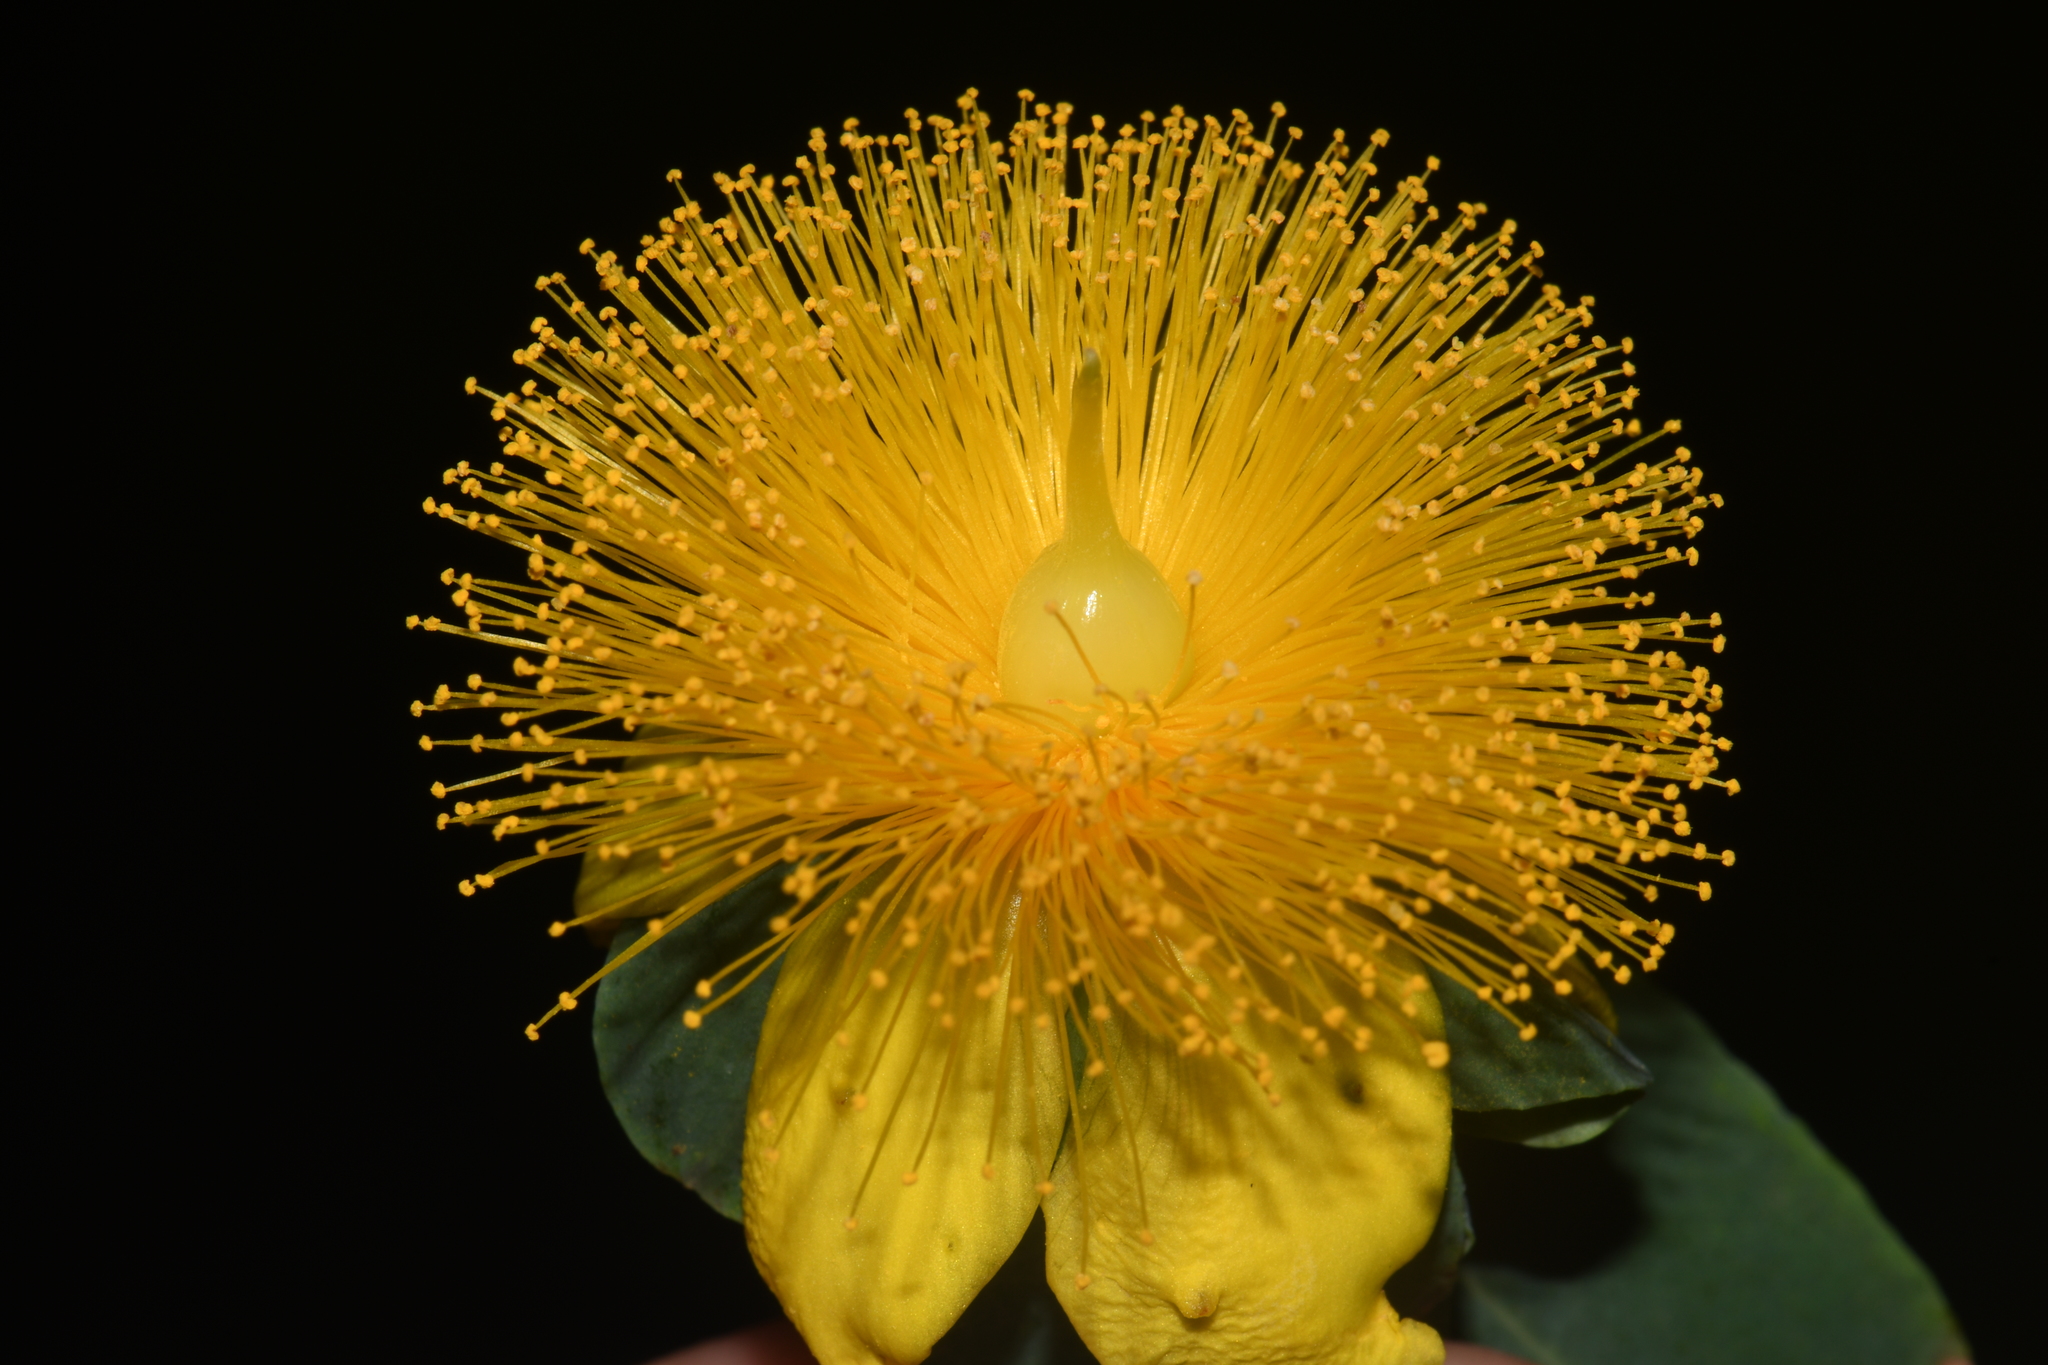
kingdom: Plantae
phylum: Tracheophyta
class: Magnoliopsida
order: Malpighiales
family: Hypericaceae
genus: Hypericum
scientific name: Hypericum frondosum
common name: Golden st. john's-wort
